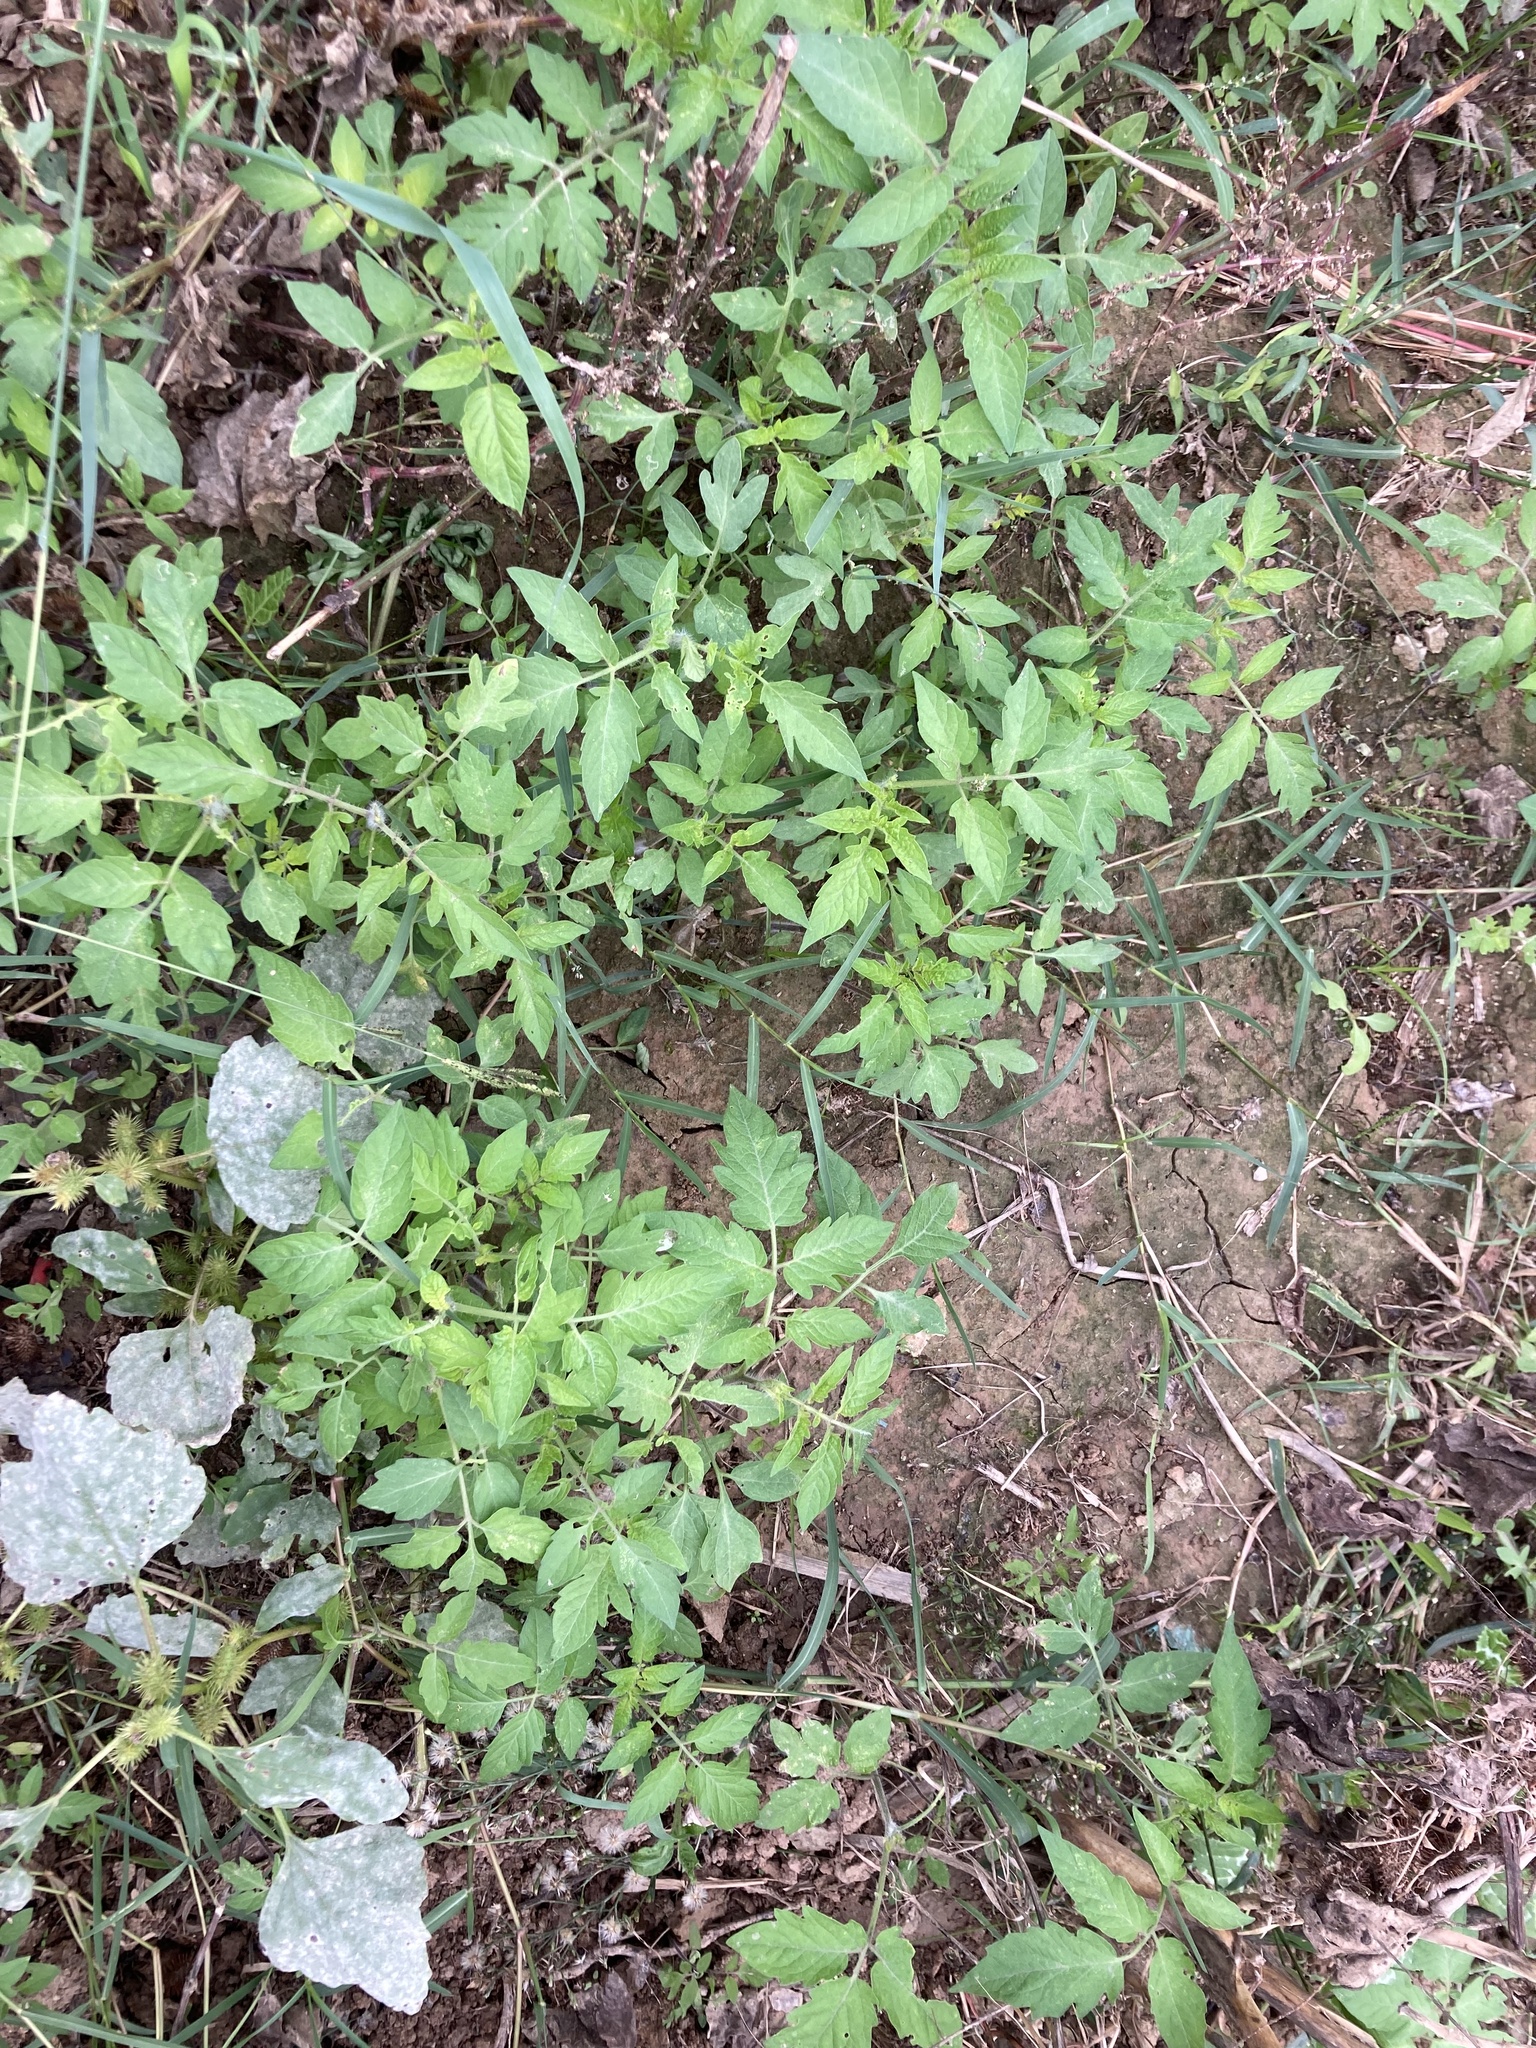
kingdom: Plantae
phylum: Tracheophyta
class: Magnoliopsida
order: Solanales
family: Solanaceae
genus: Solanum
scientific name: Solanum lycopersicum
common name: Garden tomato
